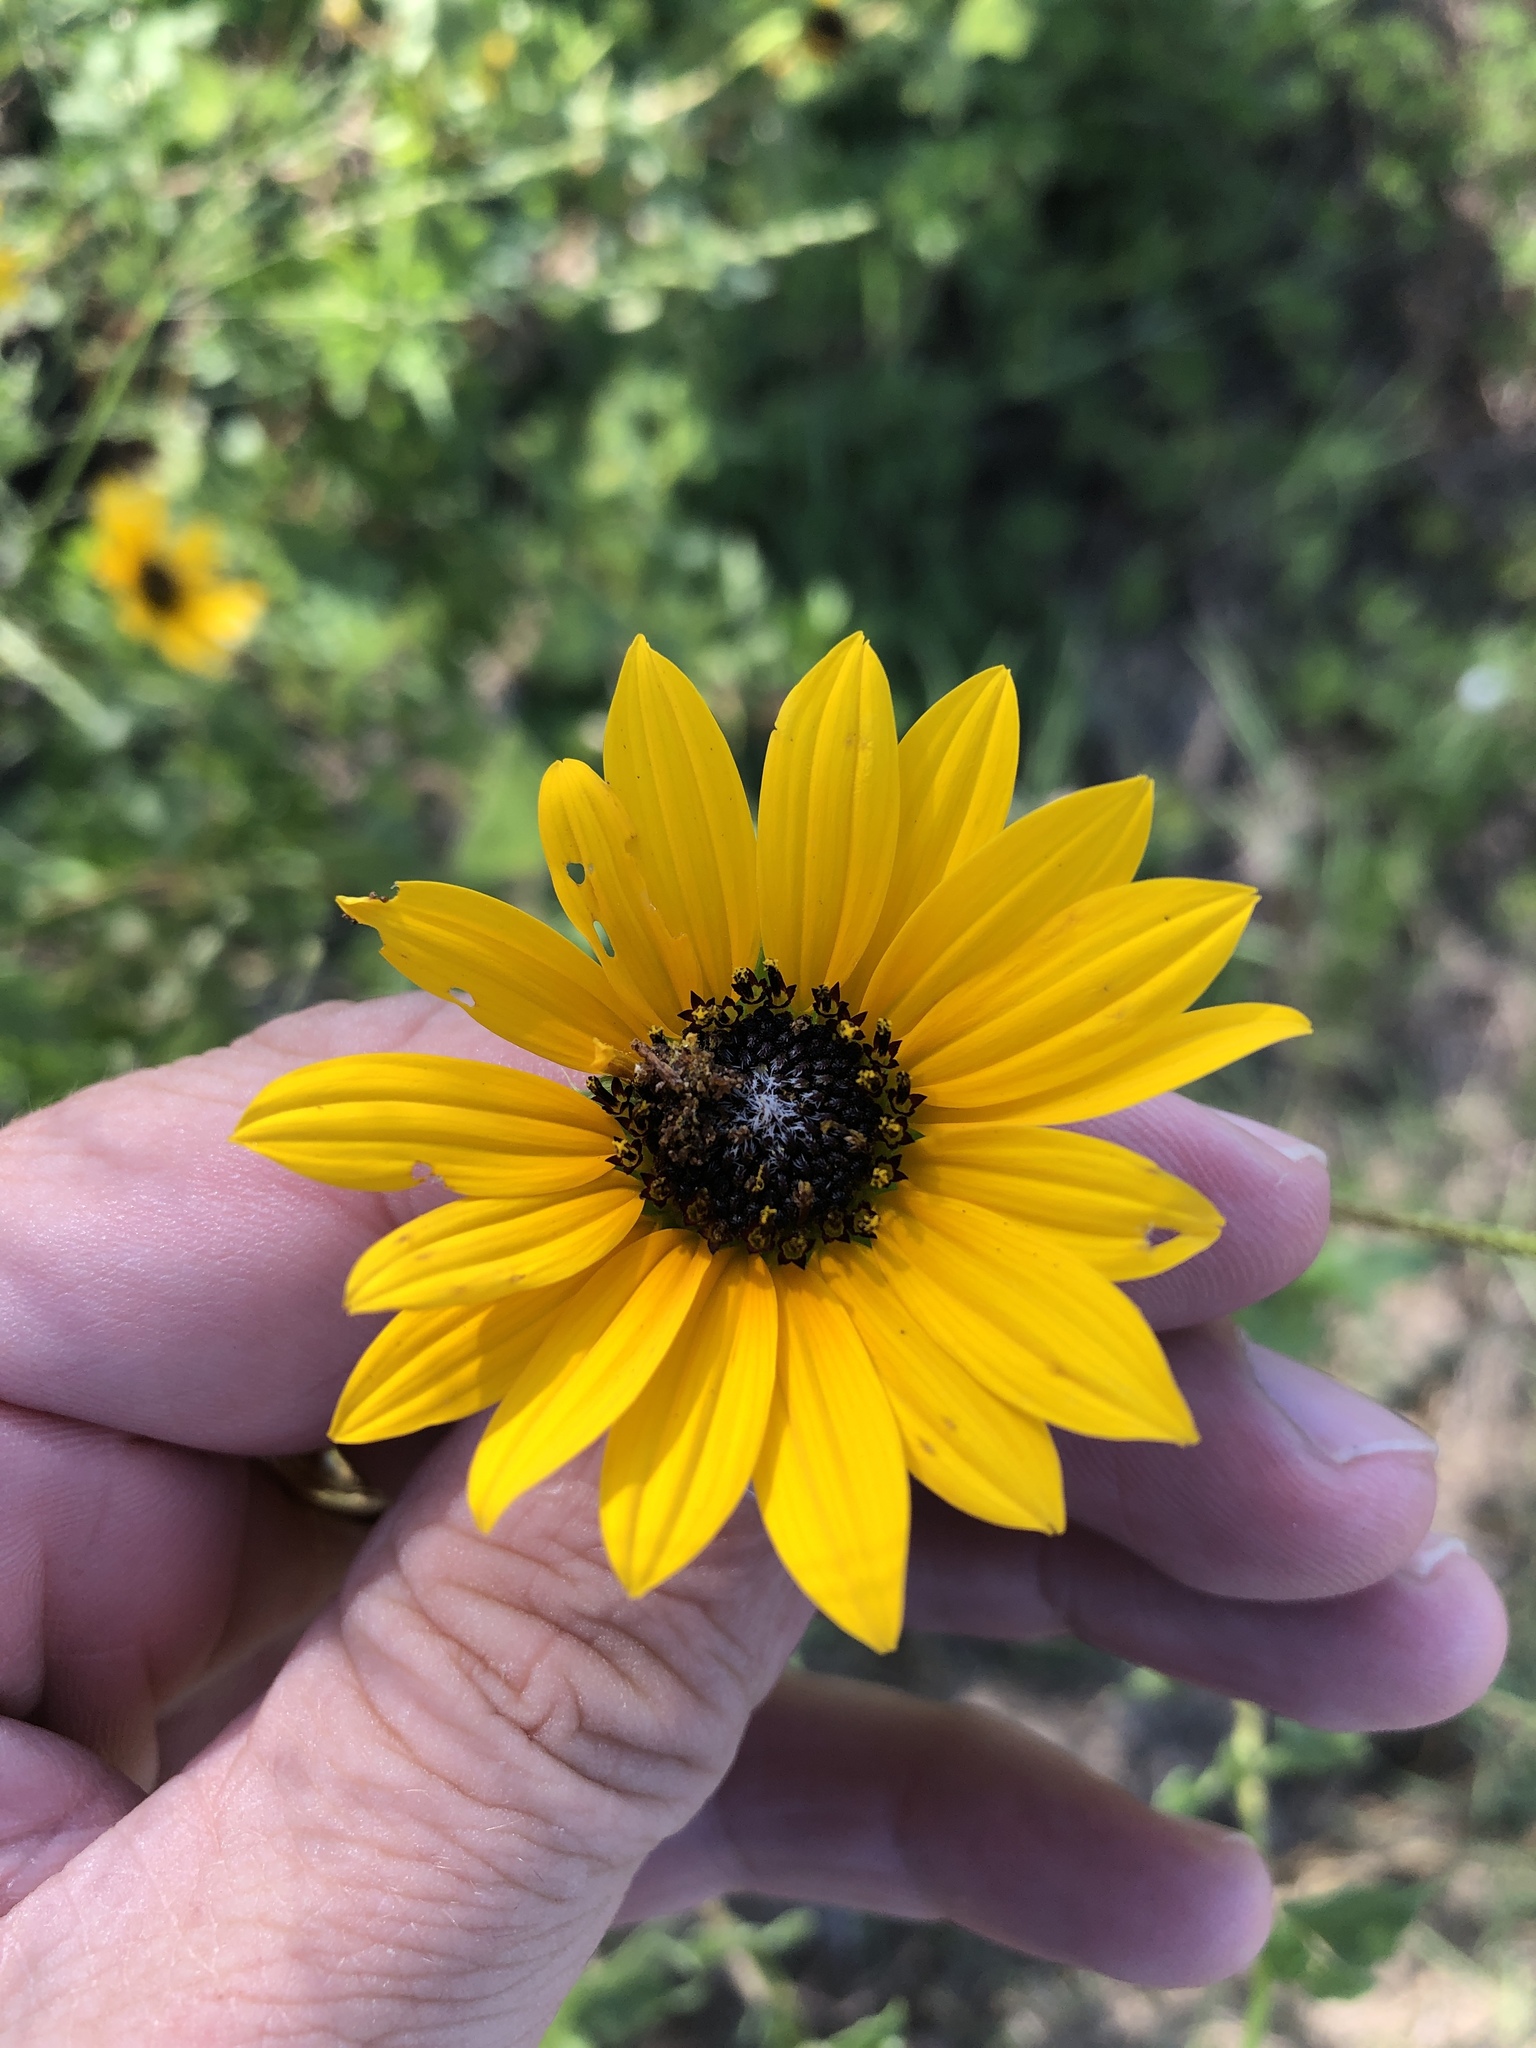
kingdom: Plantae
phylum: Tracheophyta
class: Magnoliopsida
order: Asterales
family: Asteraceae
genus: Helianthus
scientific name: Helianthus praecox
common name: Texas sunflower
